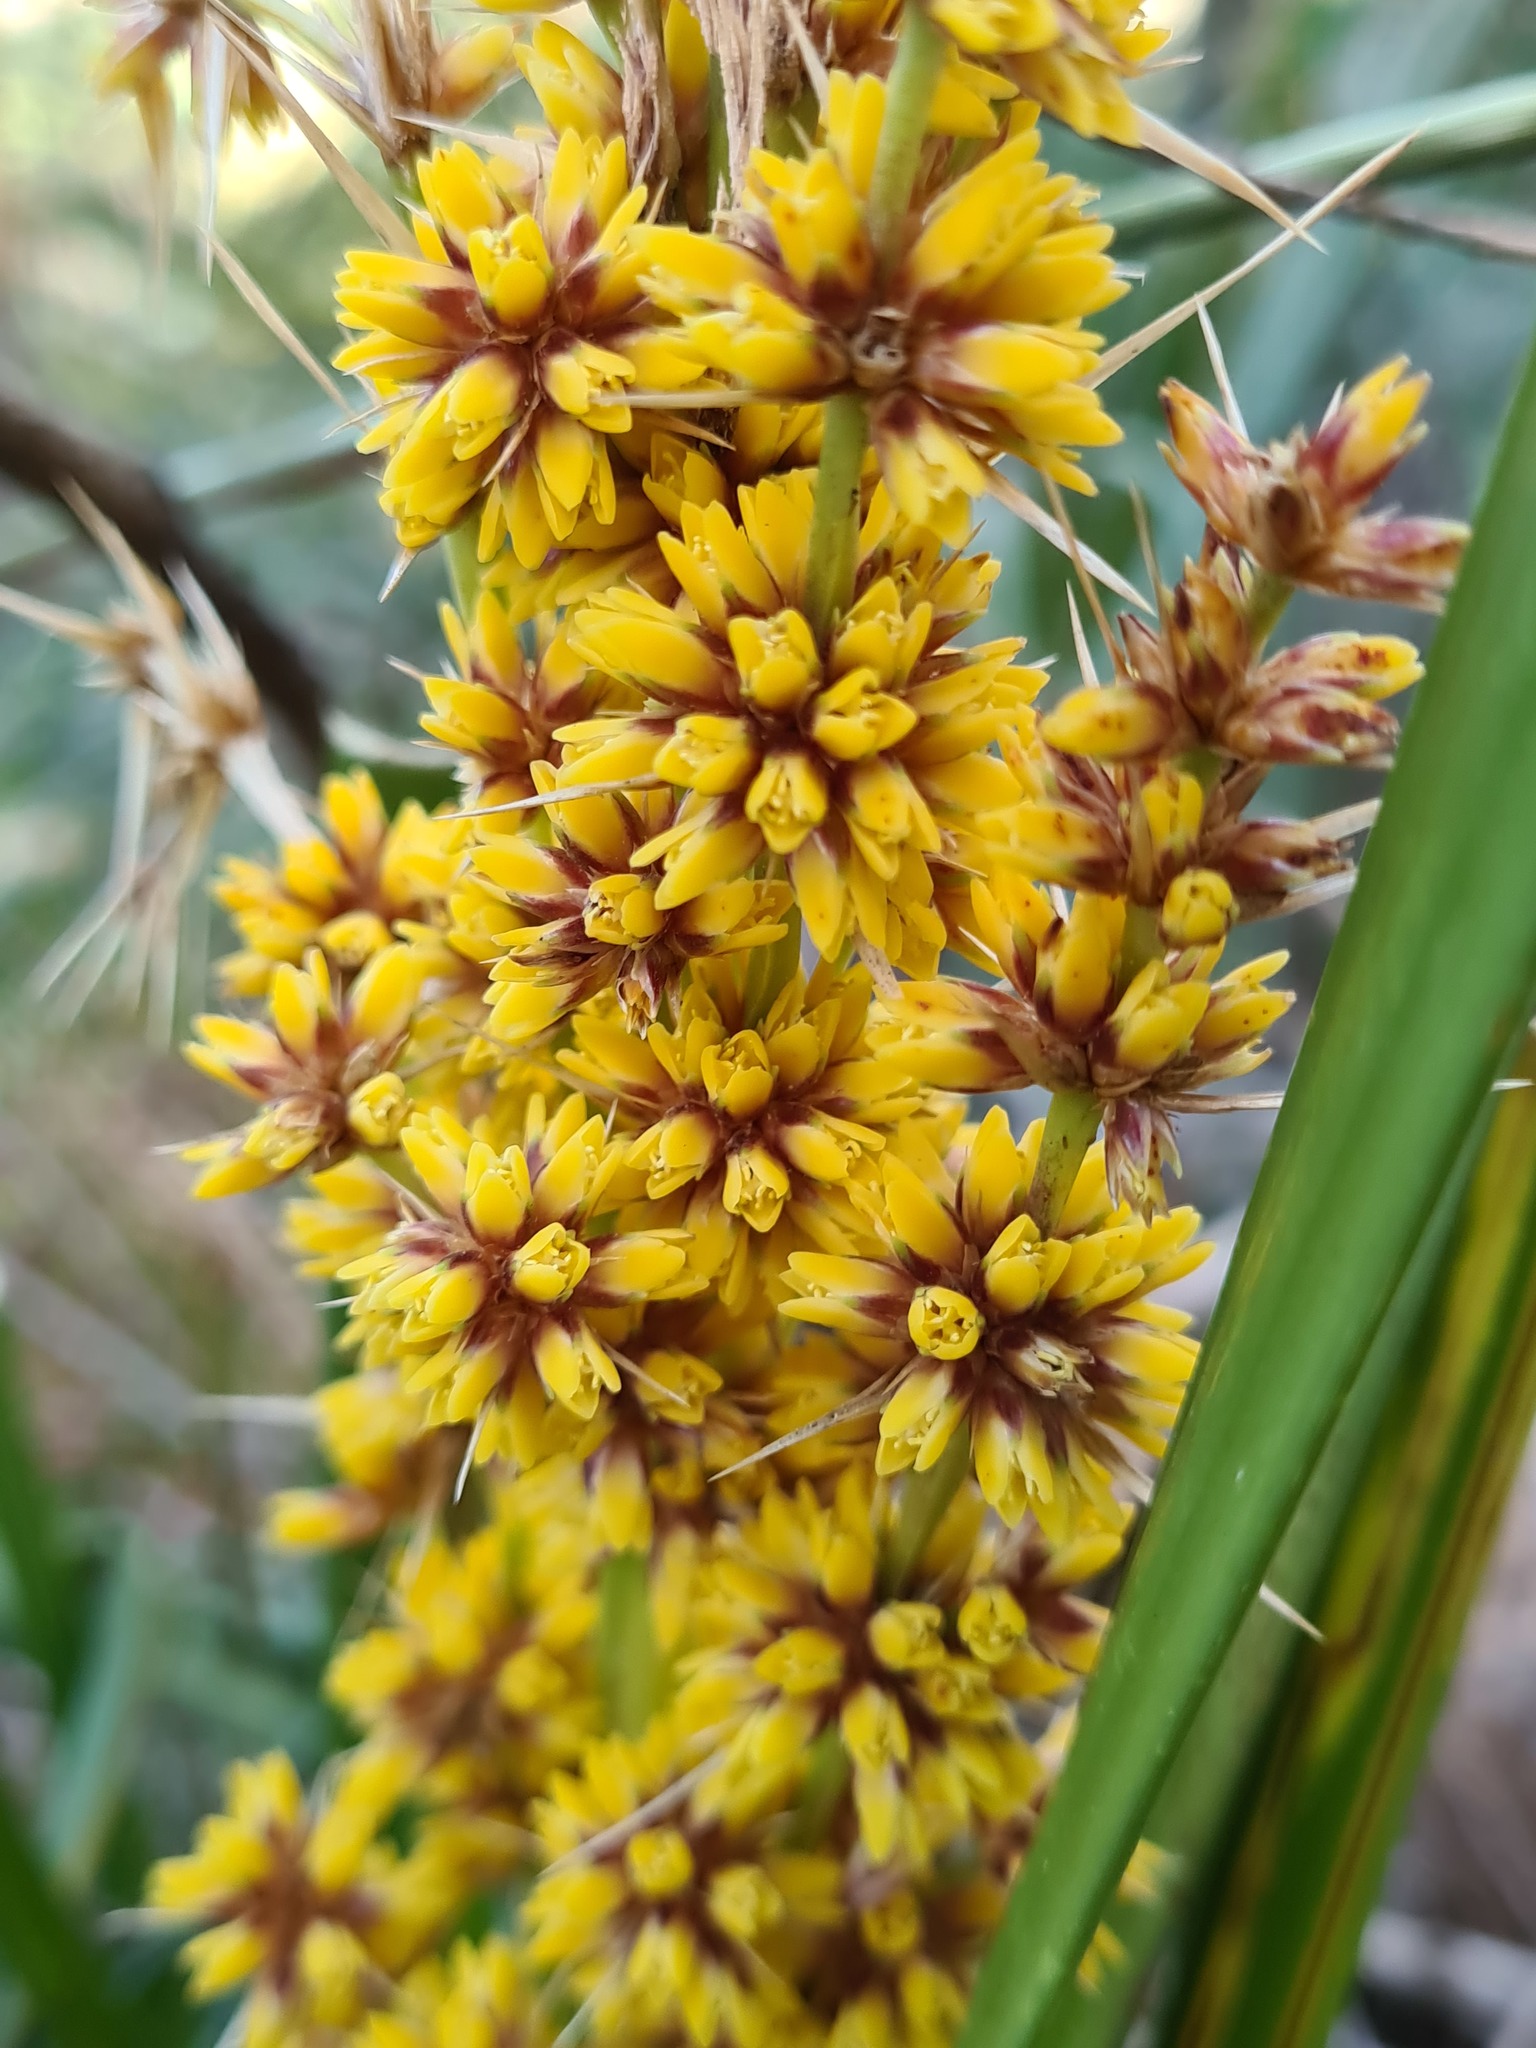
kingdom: Plantae
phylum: Tracheophyta
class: Liliopsida
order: Asparagales
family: Asparagaceae
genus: Lomandra
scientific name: Lomandra longifolia
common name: Longleaf mat-rush
